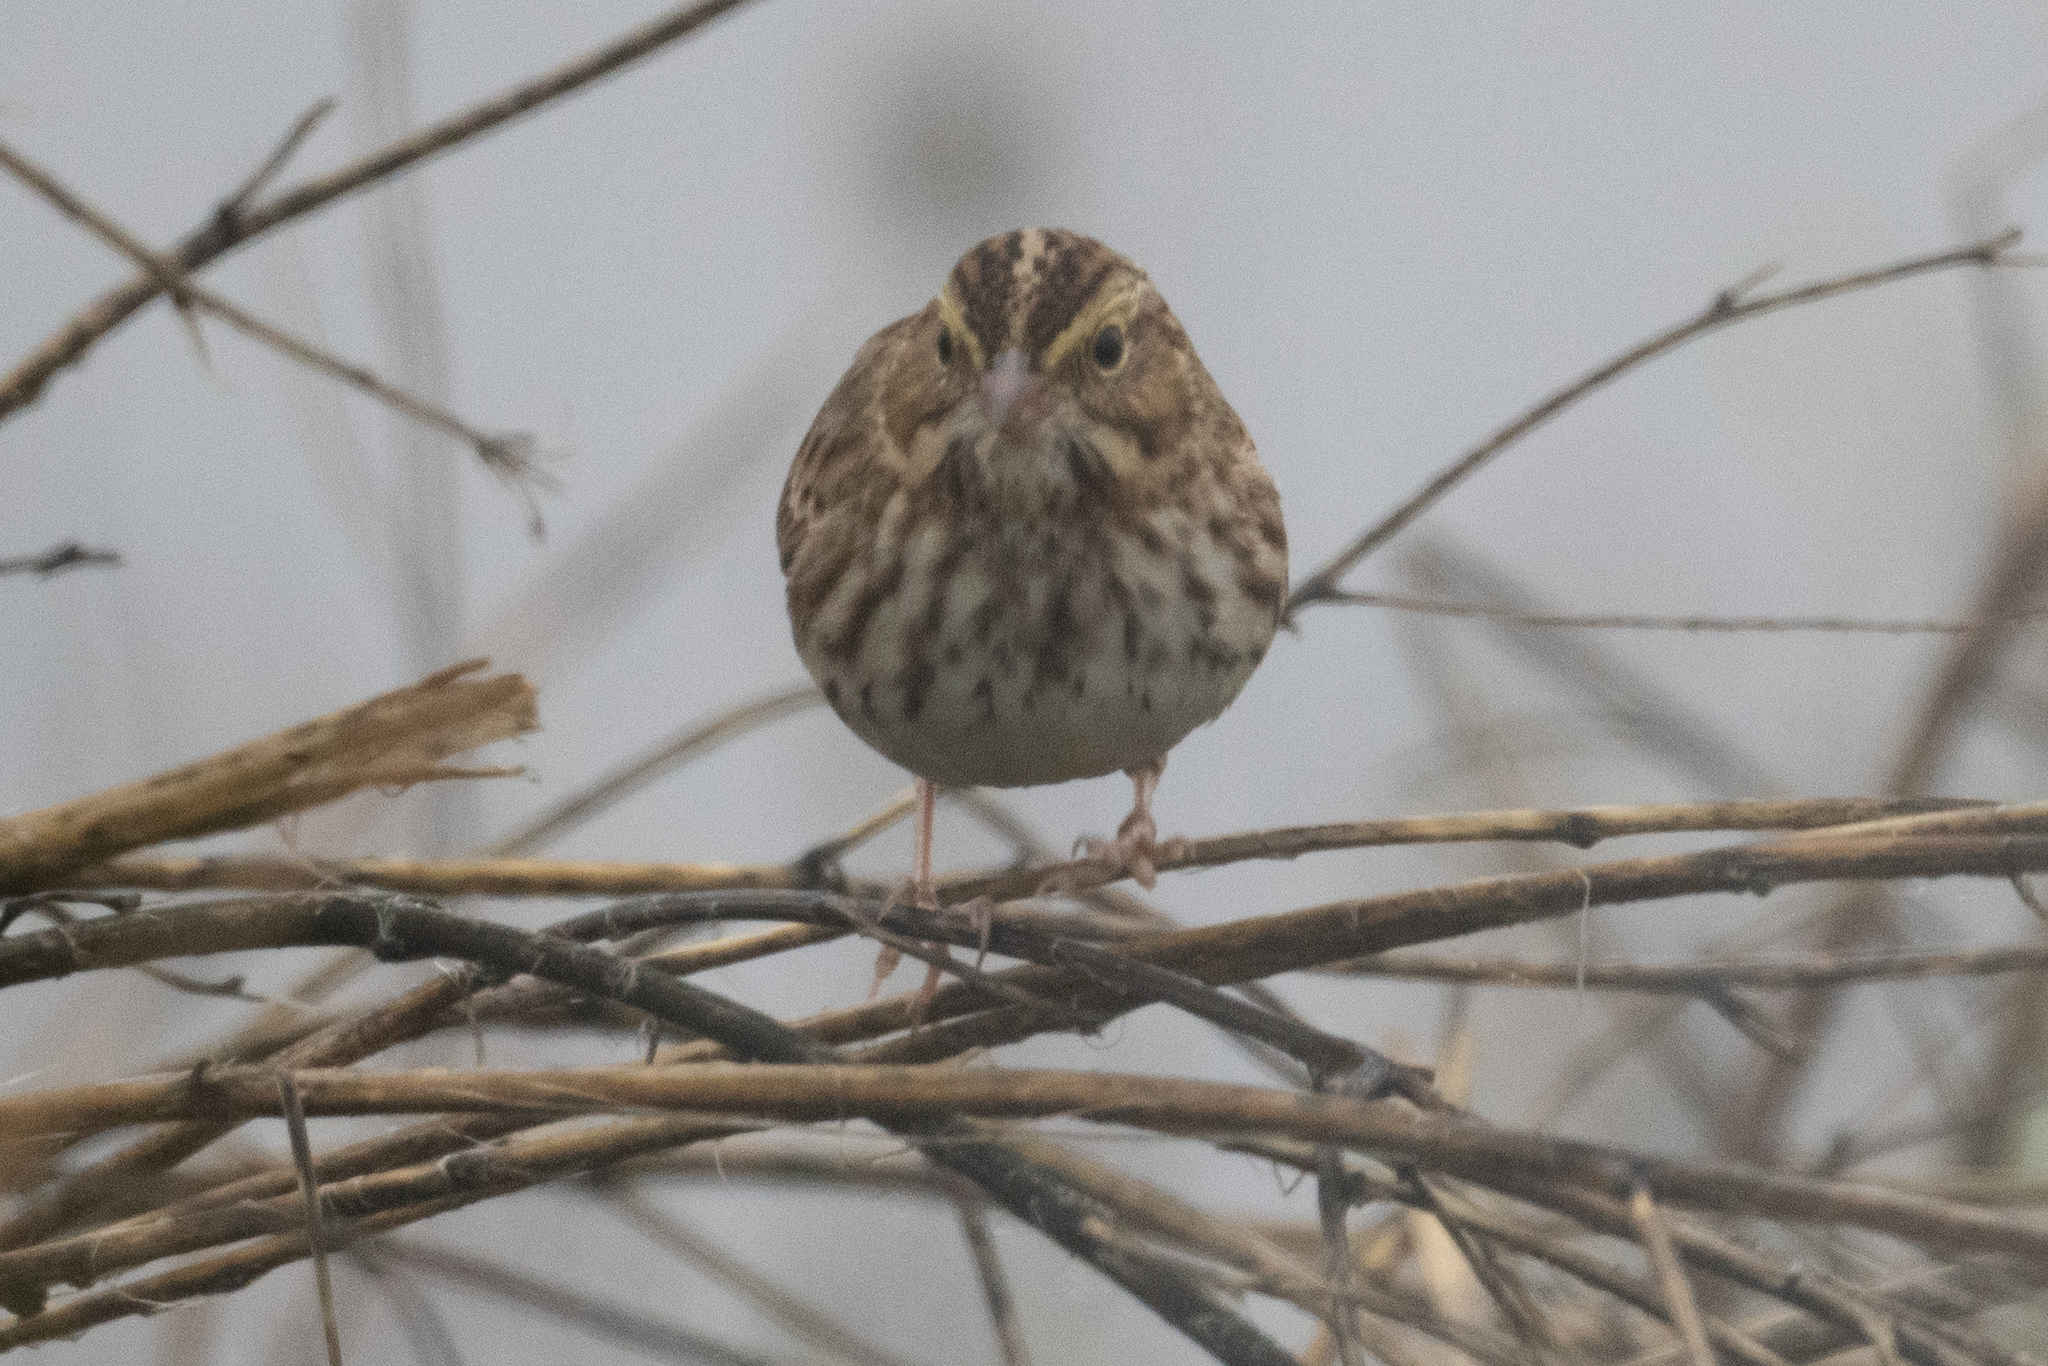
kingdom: Animalia
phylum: Chordata
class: Aves
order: Passeriformes
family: Passerellidae
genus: Passerculus
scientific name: Passerculus sandwichensis
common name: Savannah sparrow
